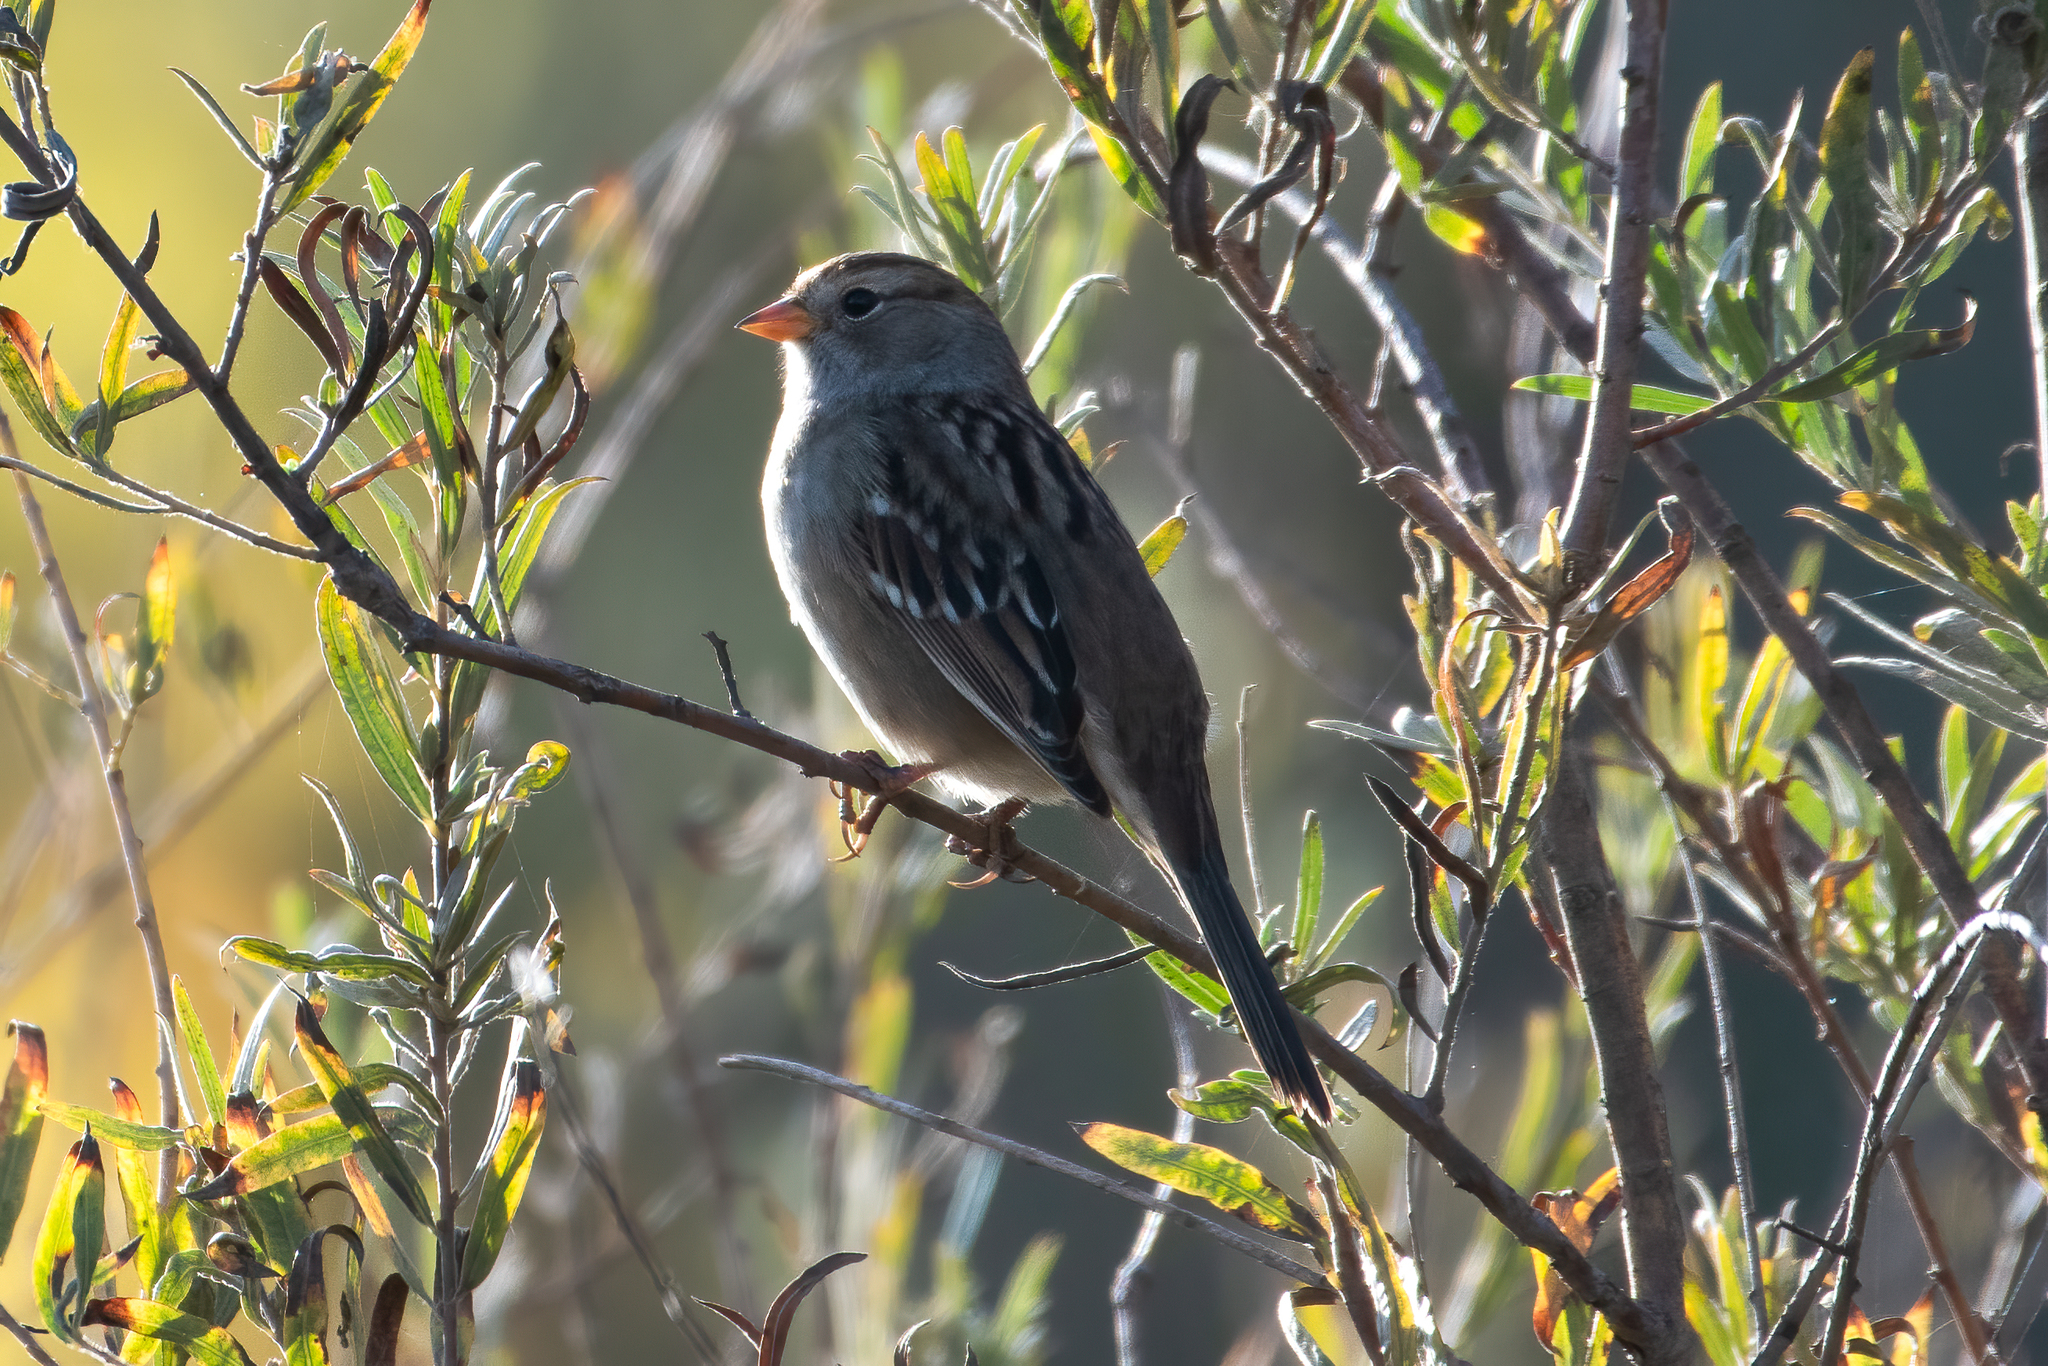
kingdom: Animalia
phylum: Chordata
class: Aves
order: Passeriformes
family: Passerellidae
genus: Zonotrichia
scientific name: Zonotrichia leucophrys
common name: White-crowned sparrow
